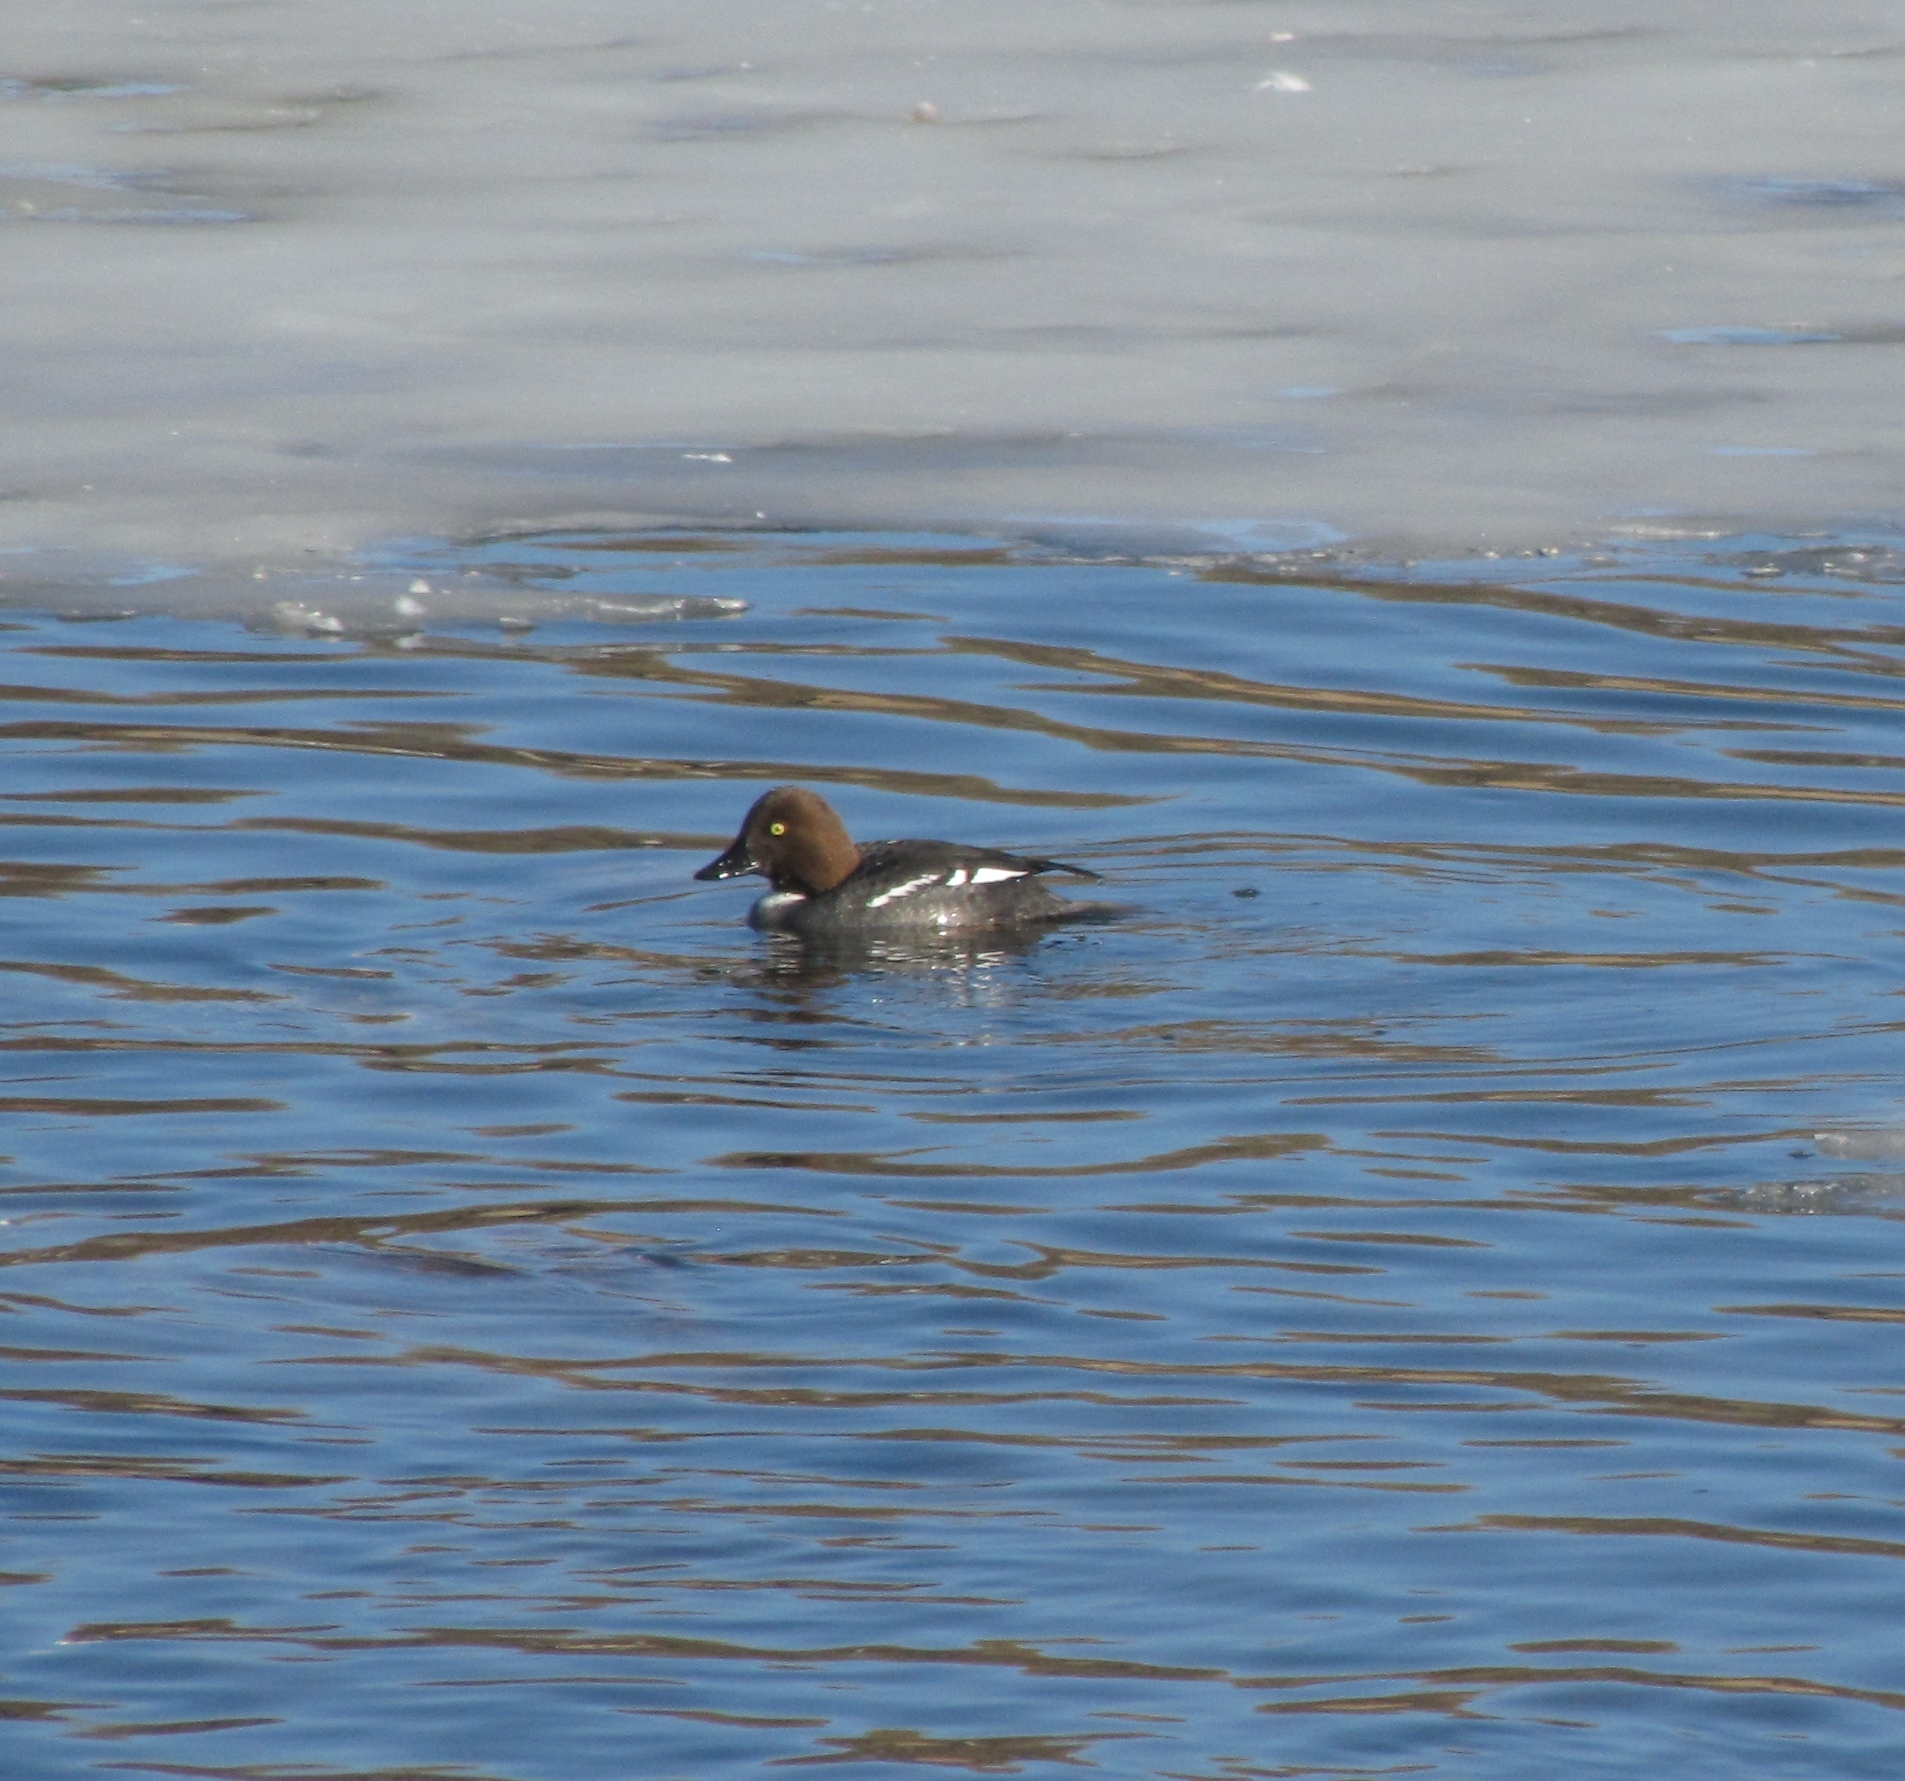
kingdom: Animalia
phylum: Chordata
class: Aves
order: Anseriformes
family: Anatidae
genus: Bucephala
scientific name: Bucephala clangula
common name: Common goldeneye
